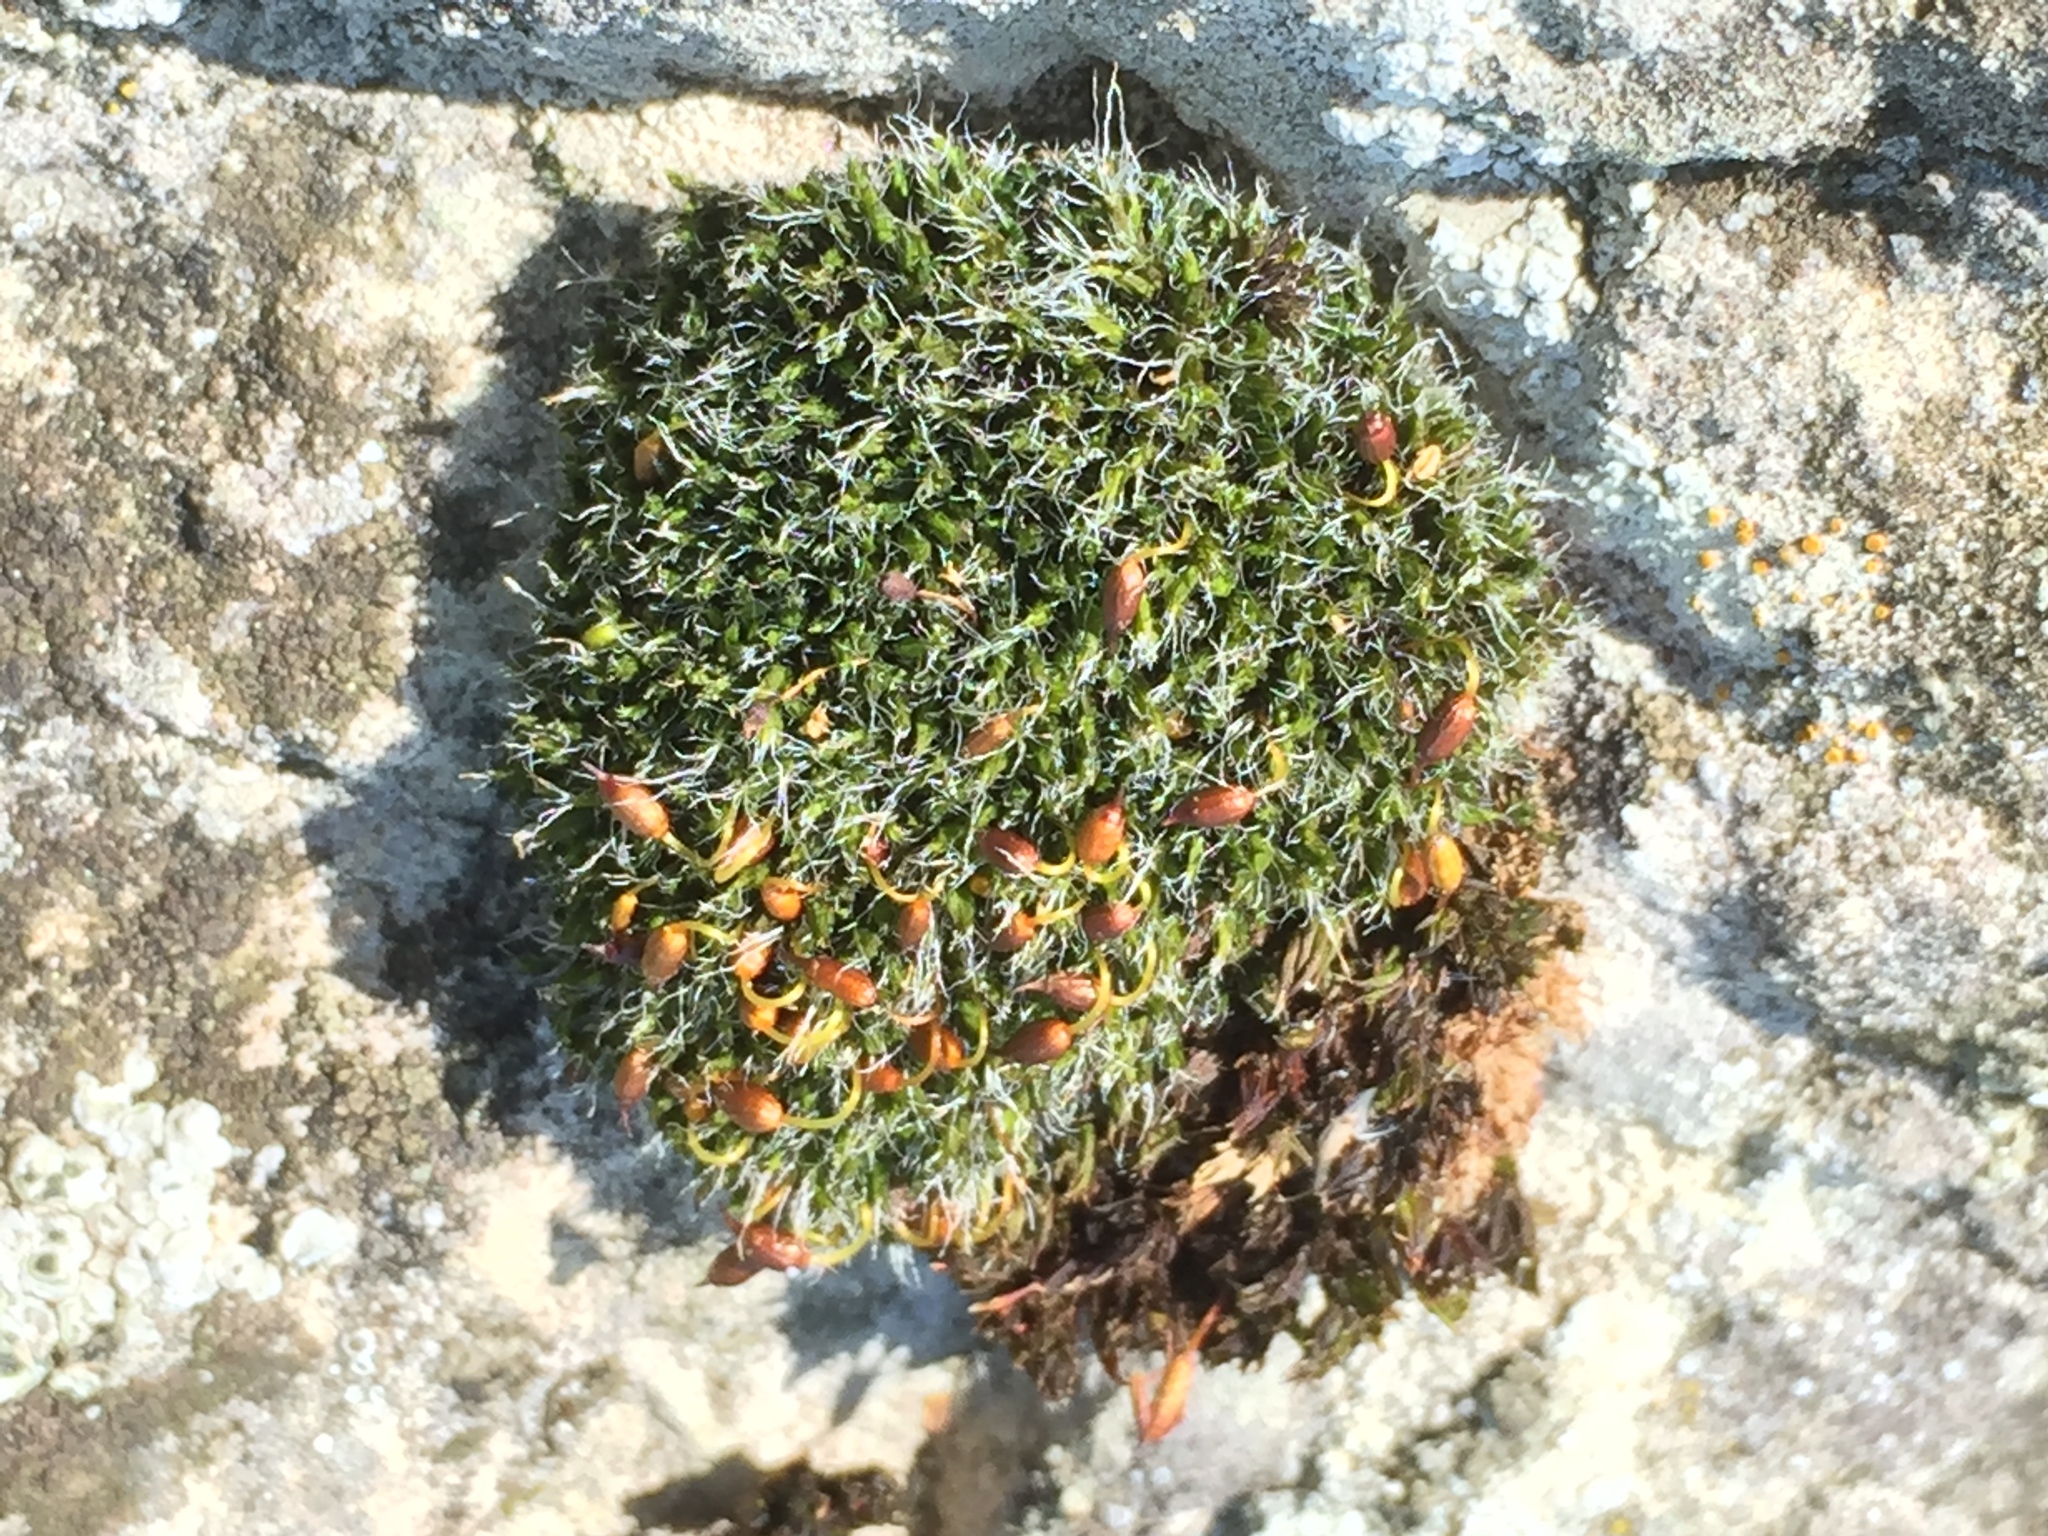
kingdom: Plantae
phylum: Bryophyta
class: Bryopsida
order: Grimmiales
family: Grimmiaceae
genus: Grimmia
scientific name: Grimmia pulvinata
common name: Grey-cushioned grimmia
